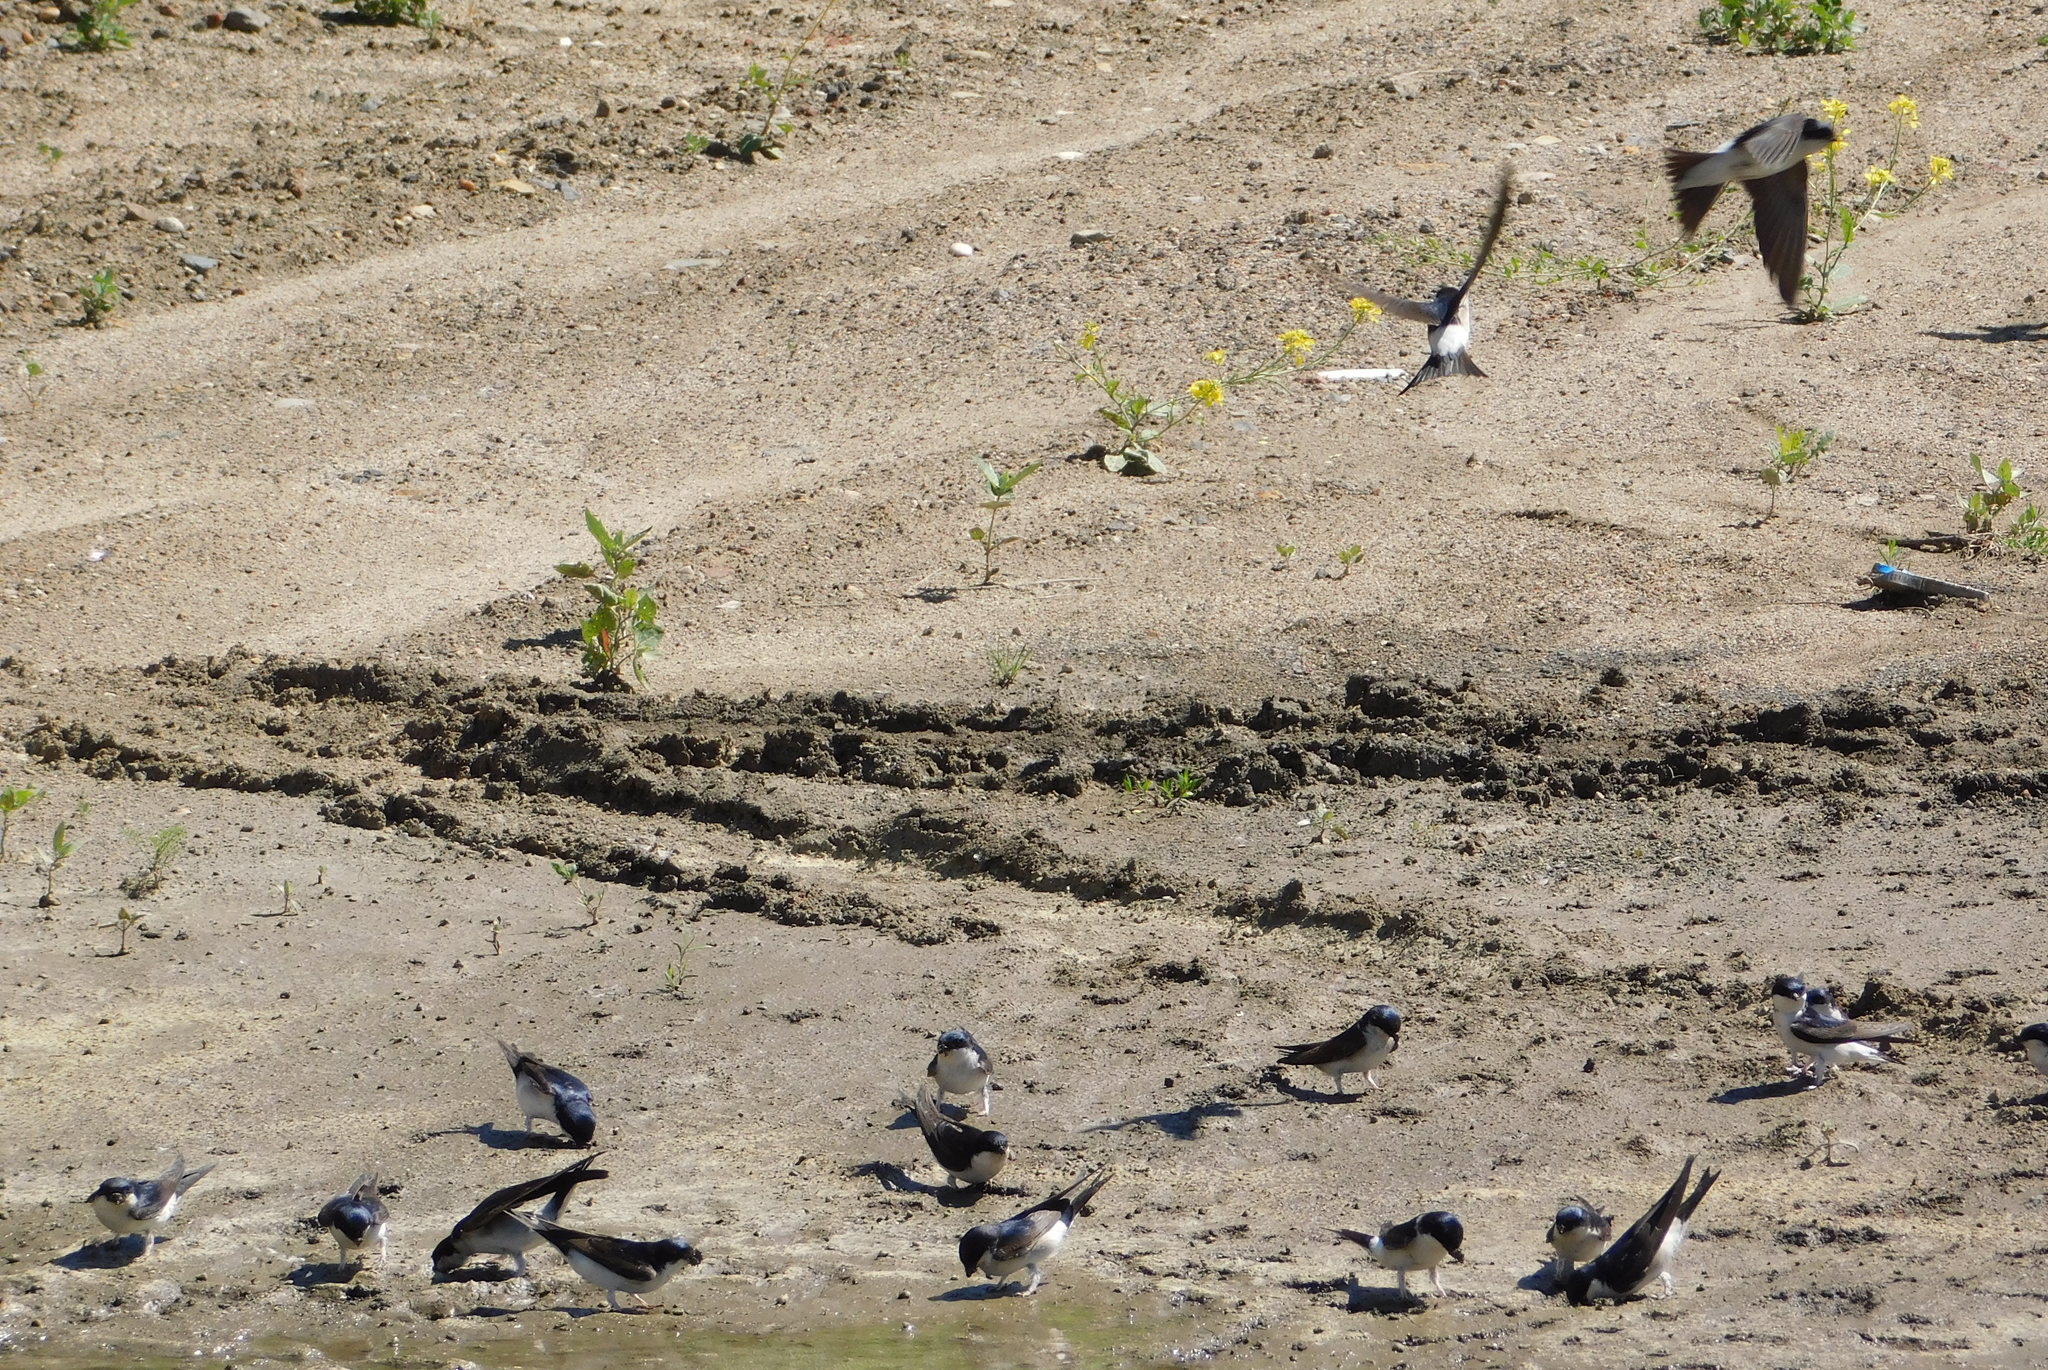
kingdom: Animalia
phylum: Chordata
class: Aves
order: Passeriformes
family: Hirundinidae
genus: Delichon
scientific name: Delichon urbicum
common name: Common house martin
